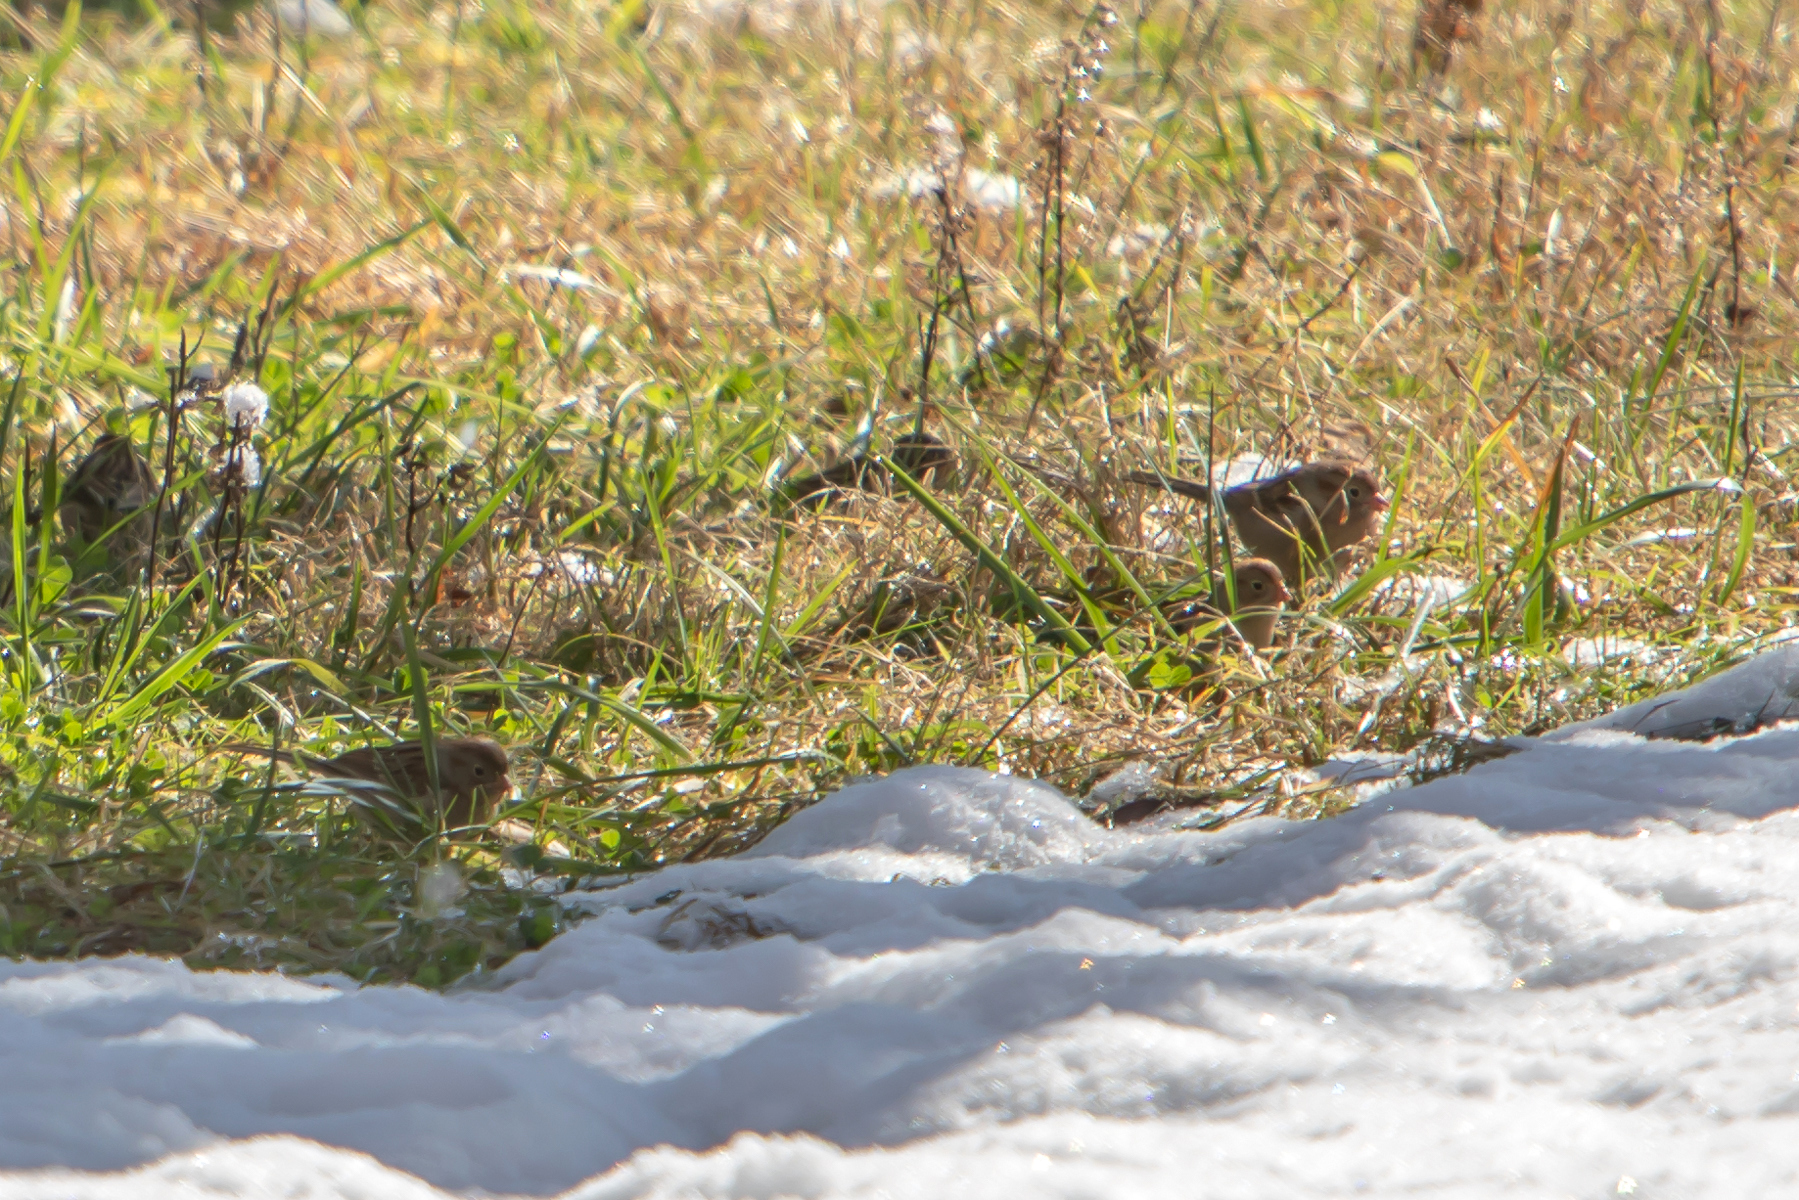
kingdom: Animalia
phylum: Chordata
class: Aves
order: Passeriformes
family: Passerellidae
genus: Spizella
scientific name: Spizella pusilla
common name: Field sparrow
